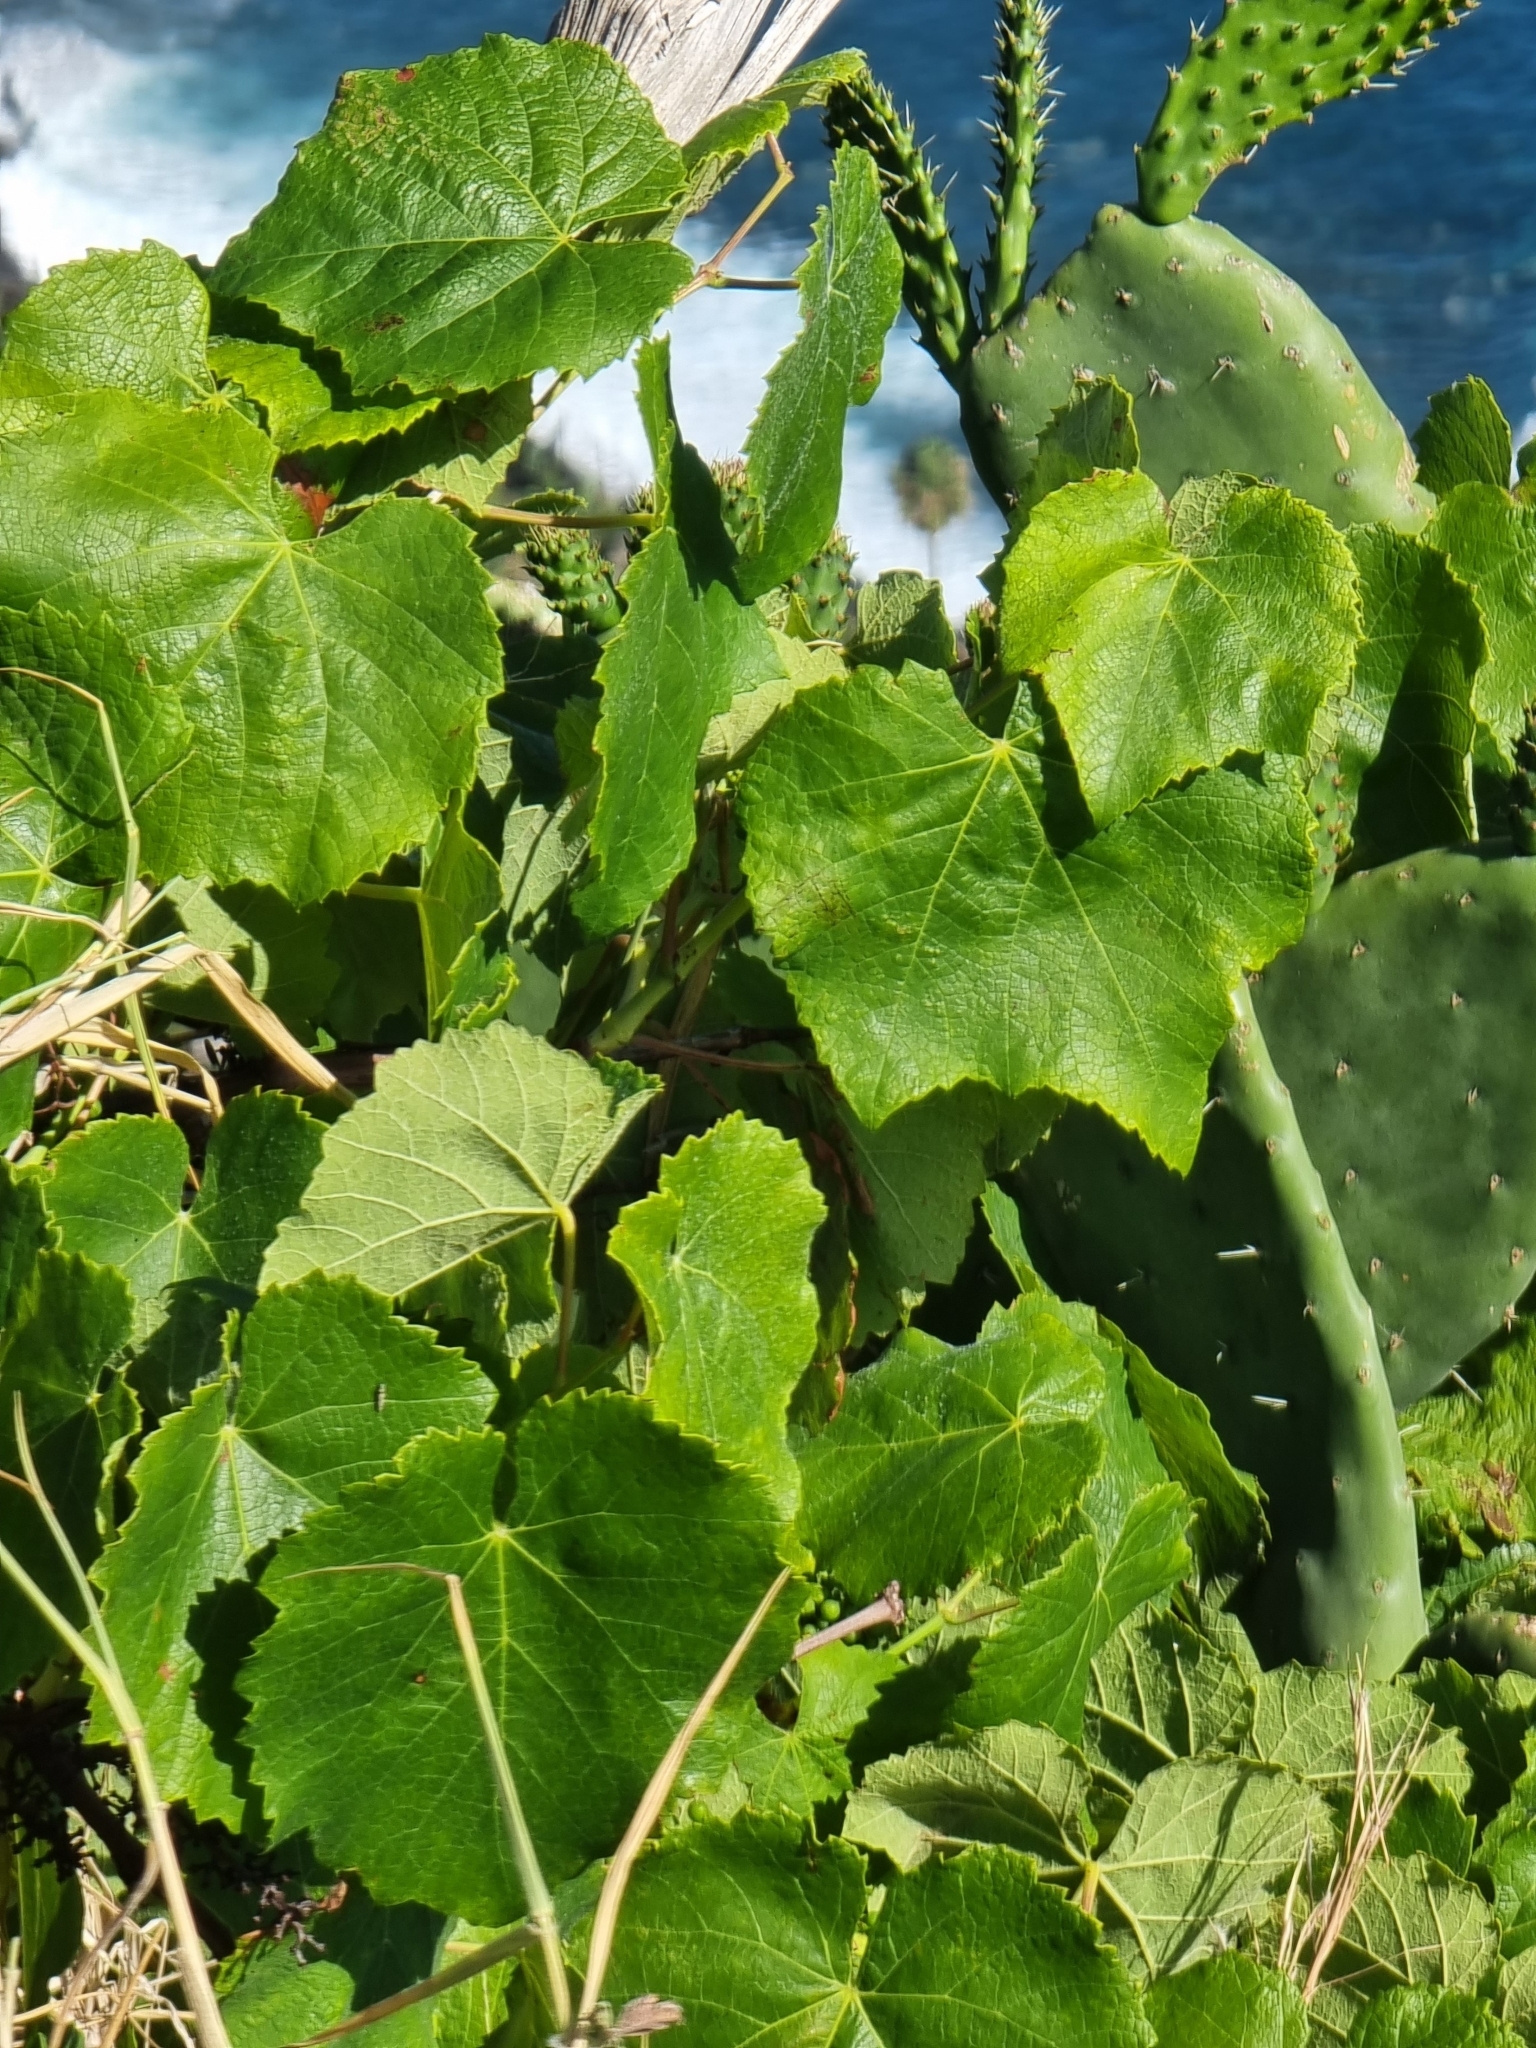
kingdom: Plantae
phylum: Tracheophyta
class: Magnoliopsida
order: Vitales
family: Vitaceae
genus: Vitis
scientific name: Vitis vinifera
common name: Grape-vine
